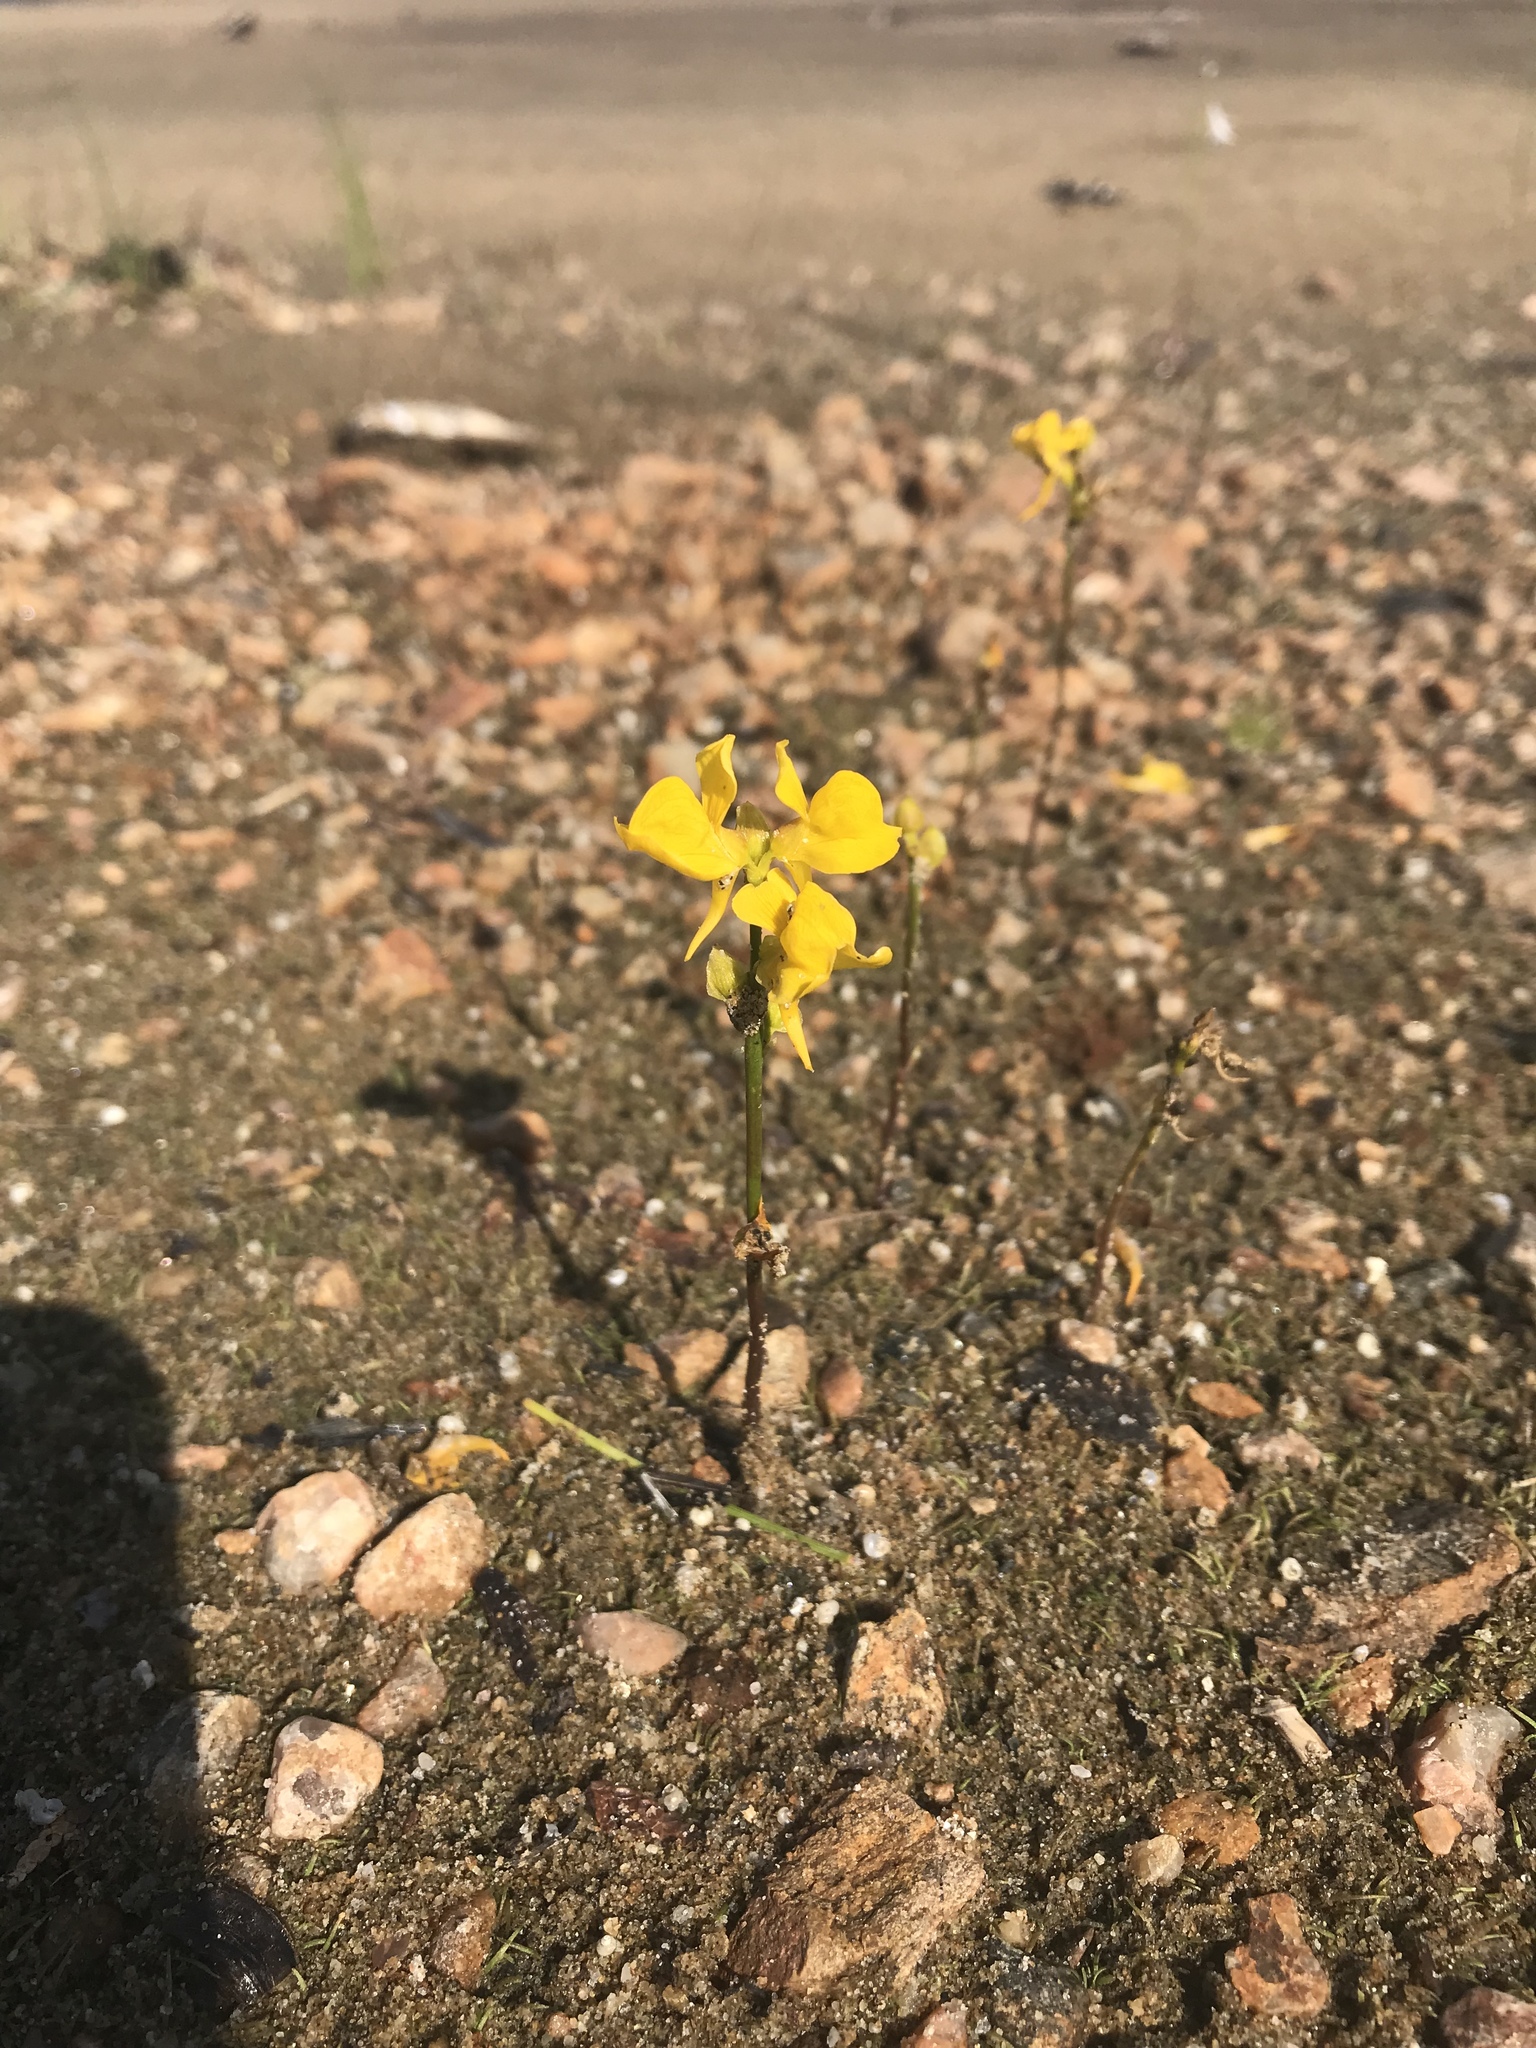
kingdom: Plantae
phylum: Tracheophyta
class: Magnoliopsida
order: Lamiales
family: Lentibulariaceae
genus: Utricularia
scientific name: Utricularia cornuta
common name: Horned bladderwort
